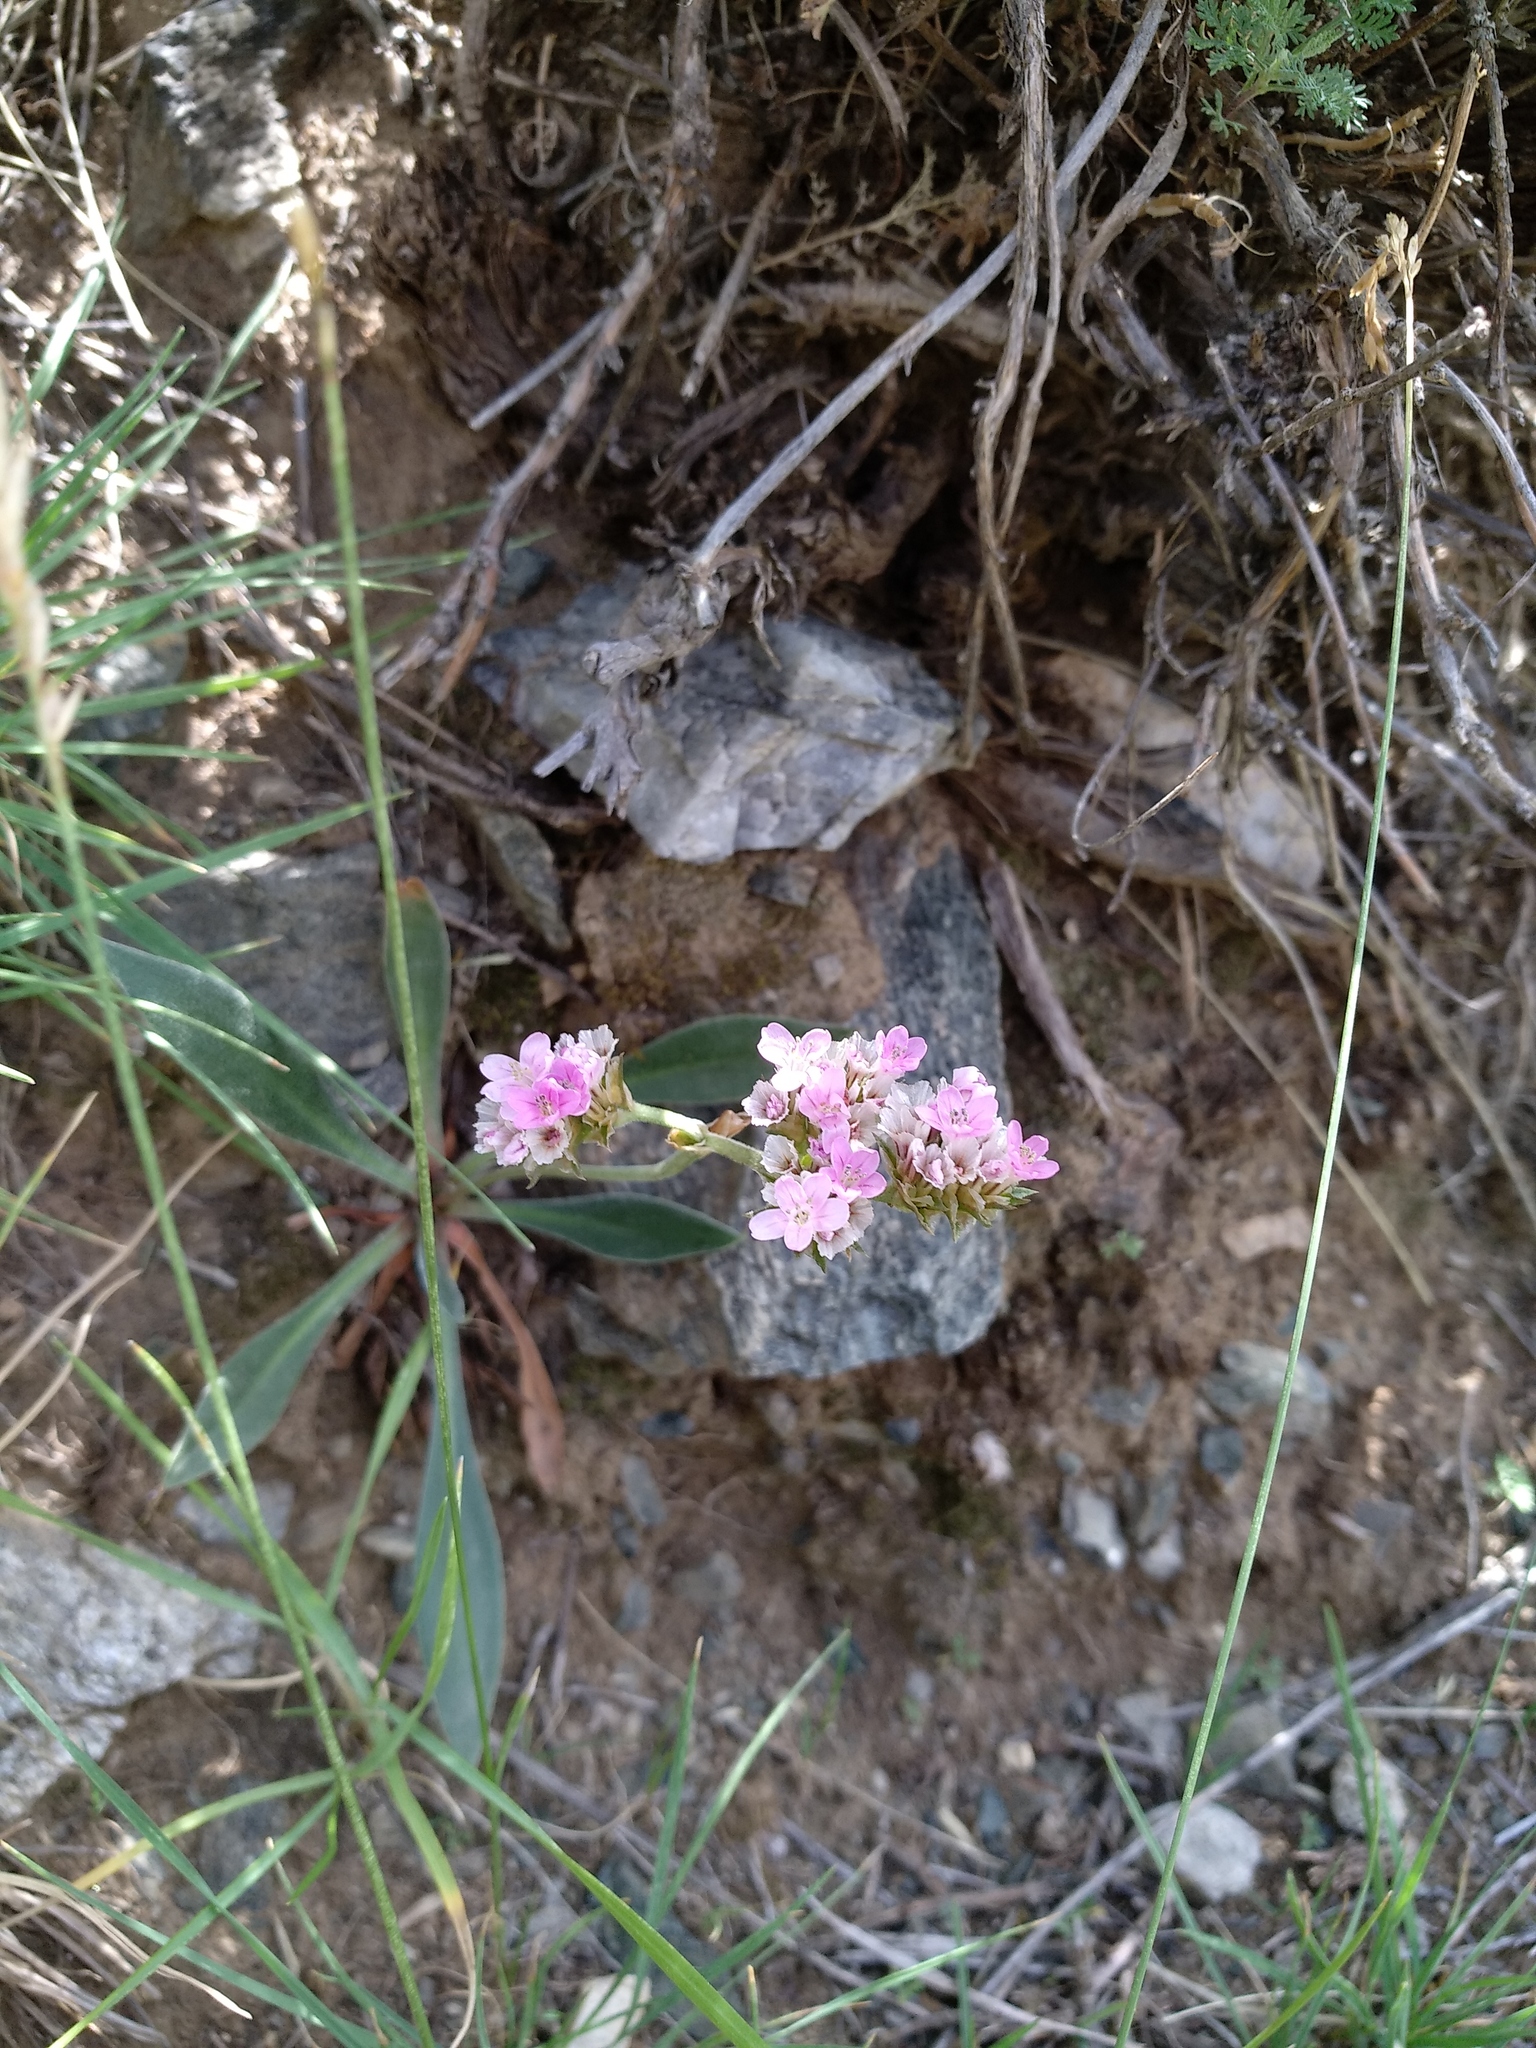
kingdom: Plantae
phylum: Tracheophyta
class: Magnoliopsida
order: Caryophyllales
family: Plumbaginaceae
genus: Goniolimon
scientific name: Goniolimon speciosum
